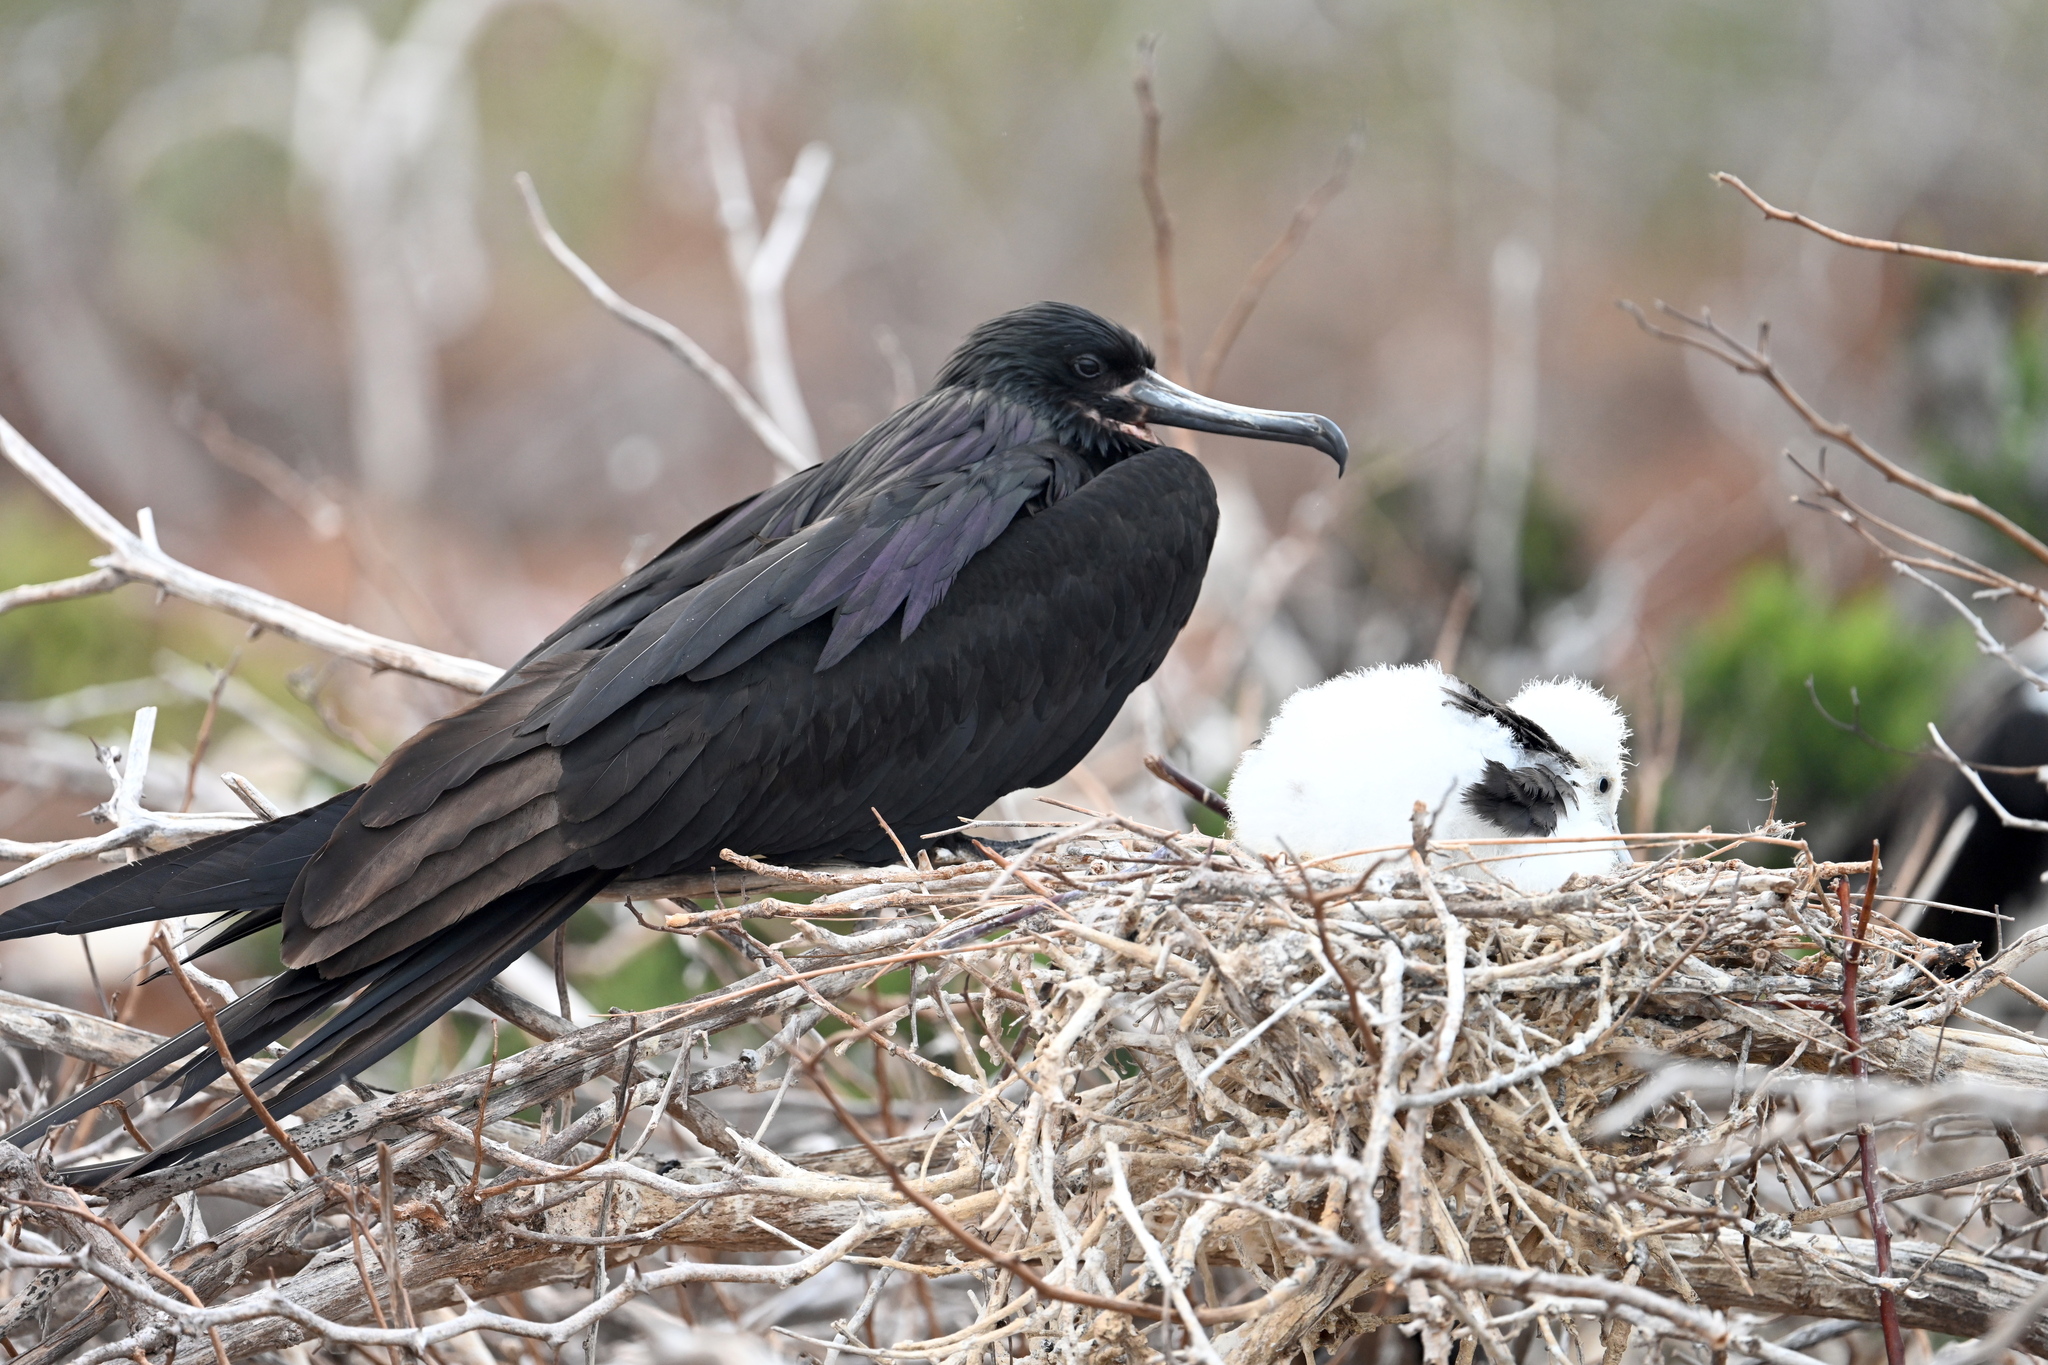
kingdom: Animalia
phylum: Chordata
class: Aves
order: Suliformes
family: Fregatidae
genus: Fregata
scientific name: Fregata magnificens
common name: Magnificent frigatebird
